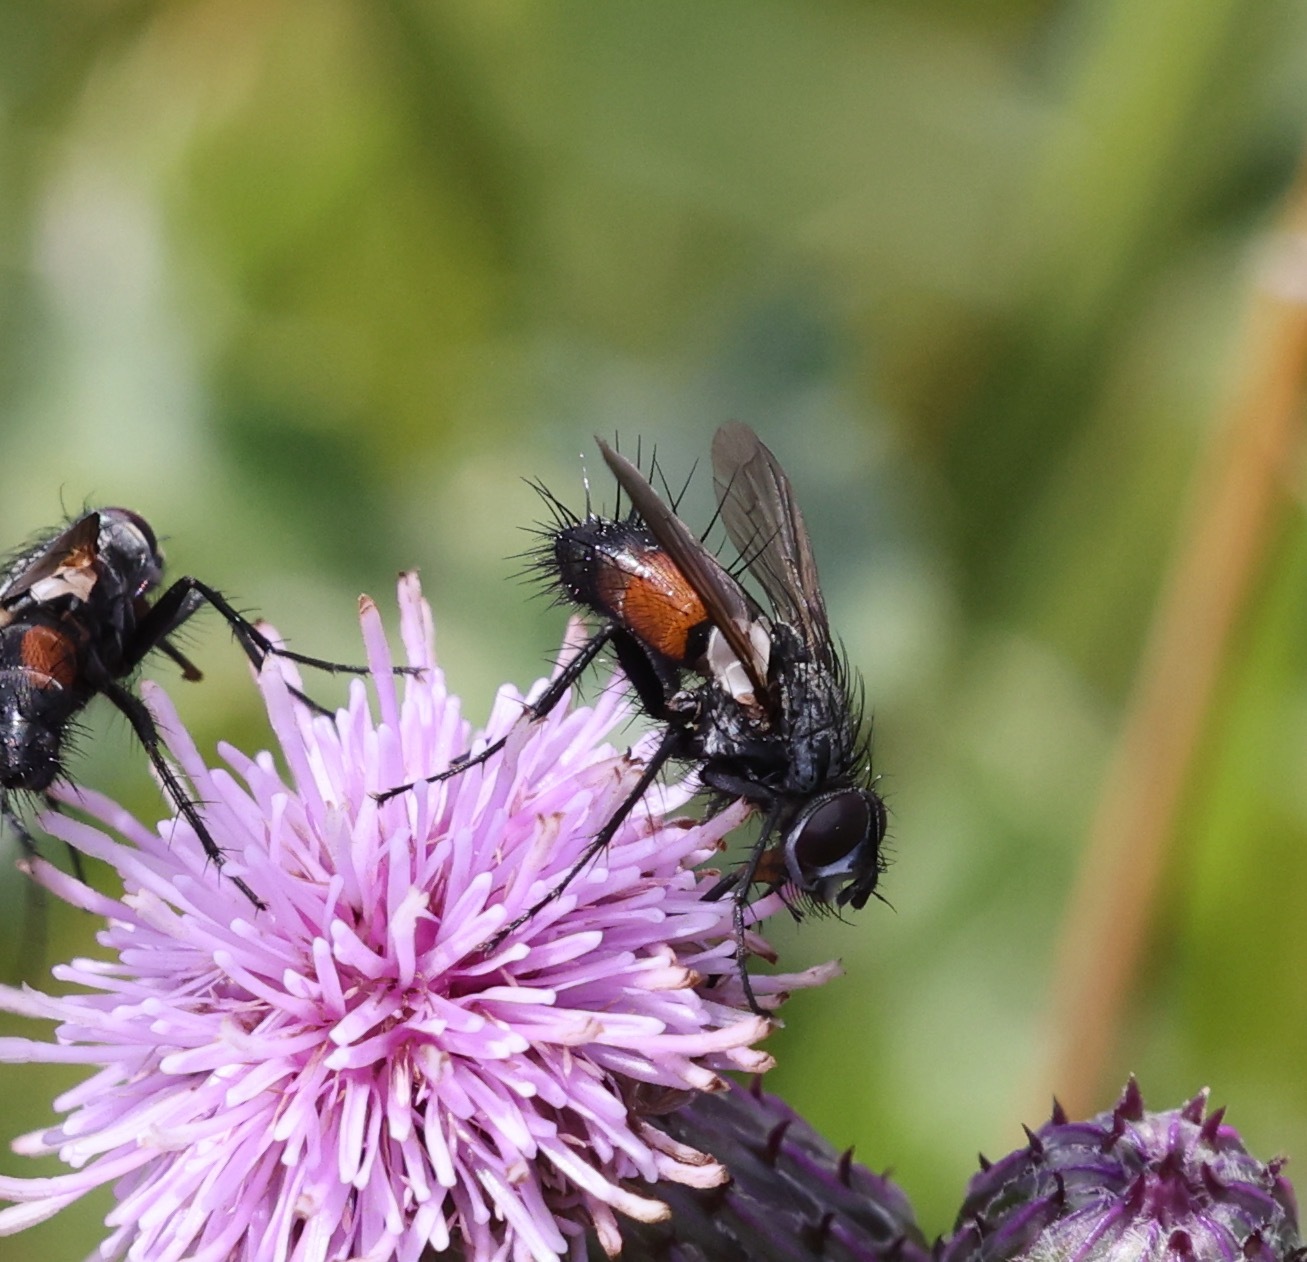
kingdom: Animalia
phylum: Arthropoda
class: Insecta
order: Diptera
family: Tachinidae
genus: Eriothrix
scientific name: Eriothrix rufomaculatus
